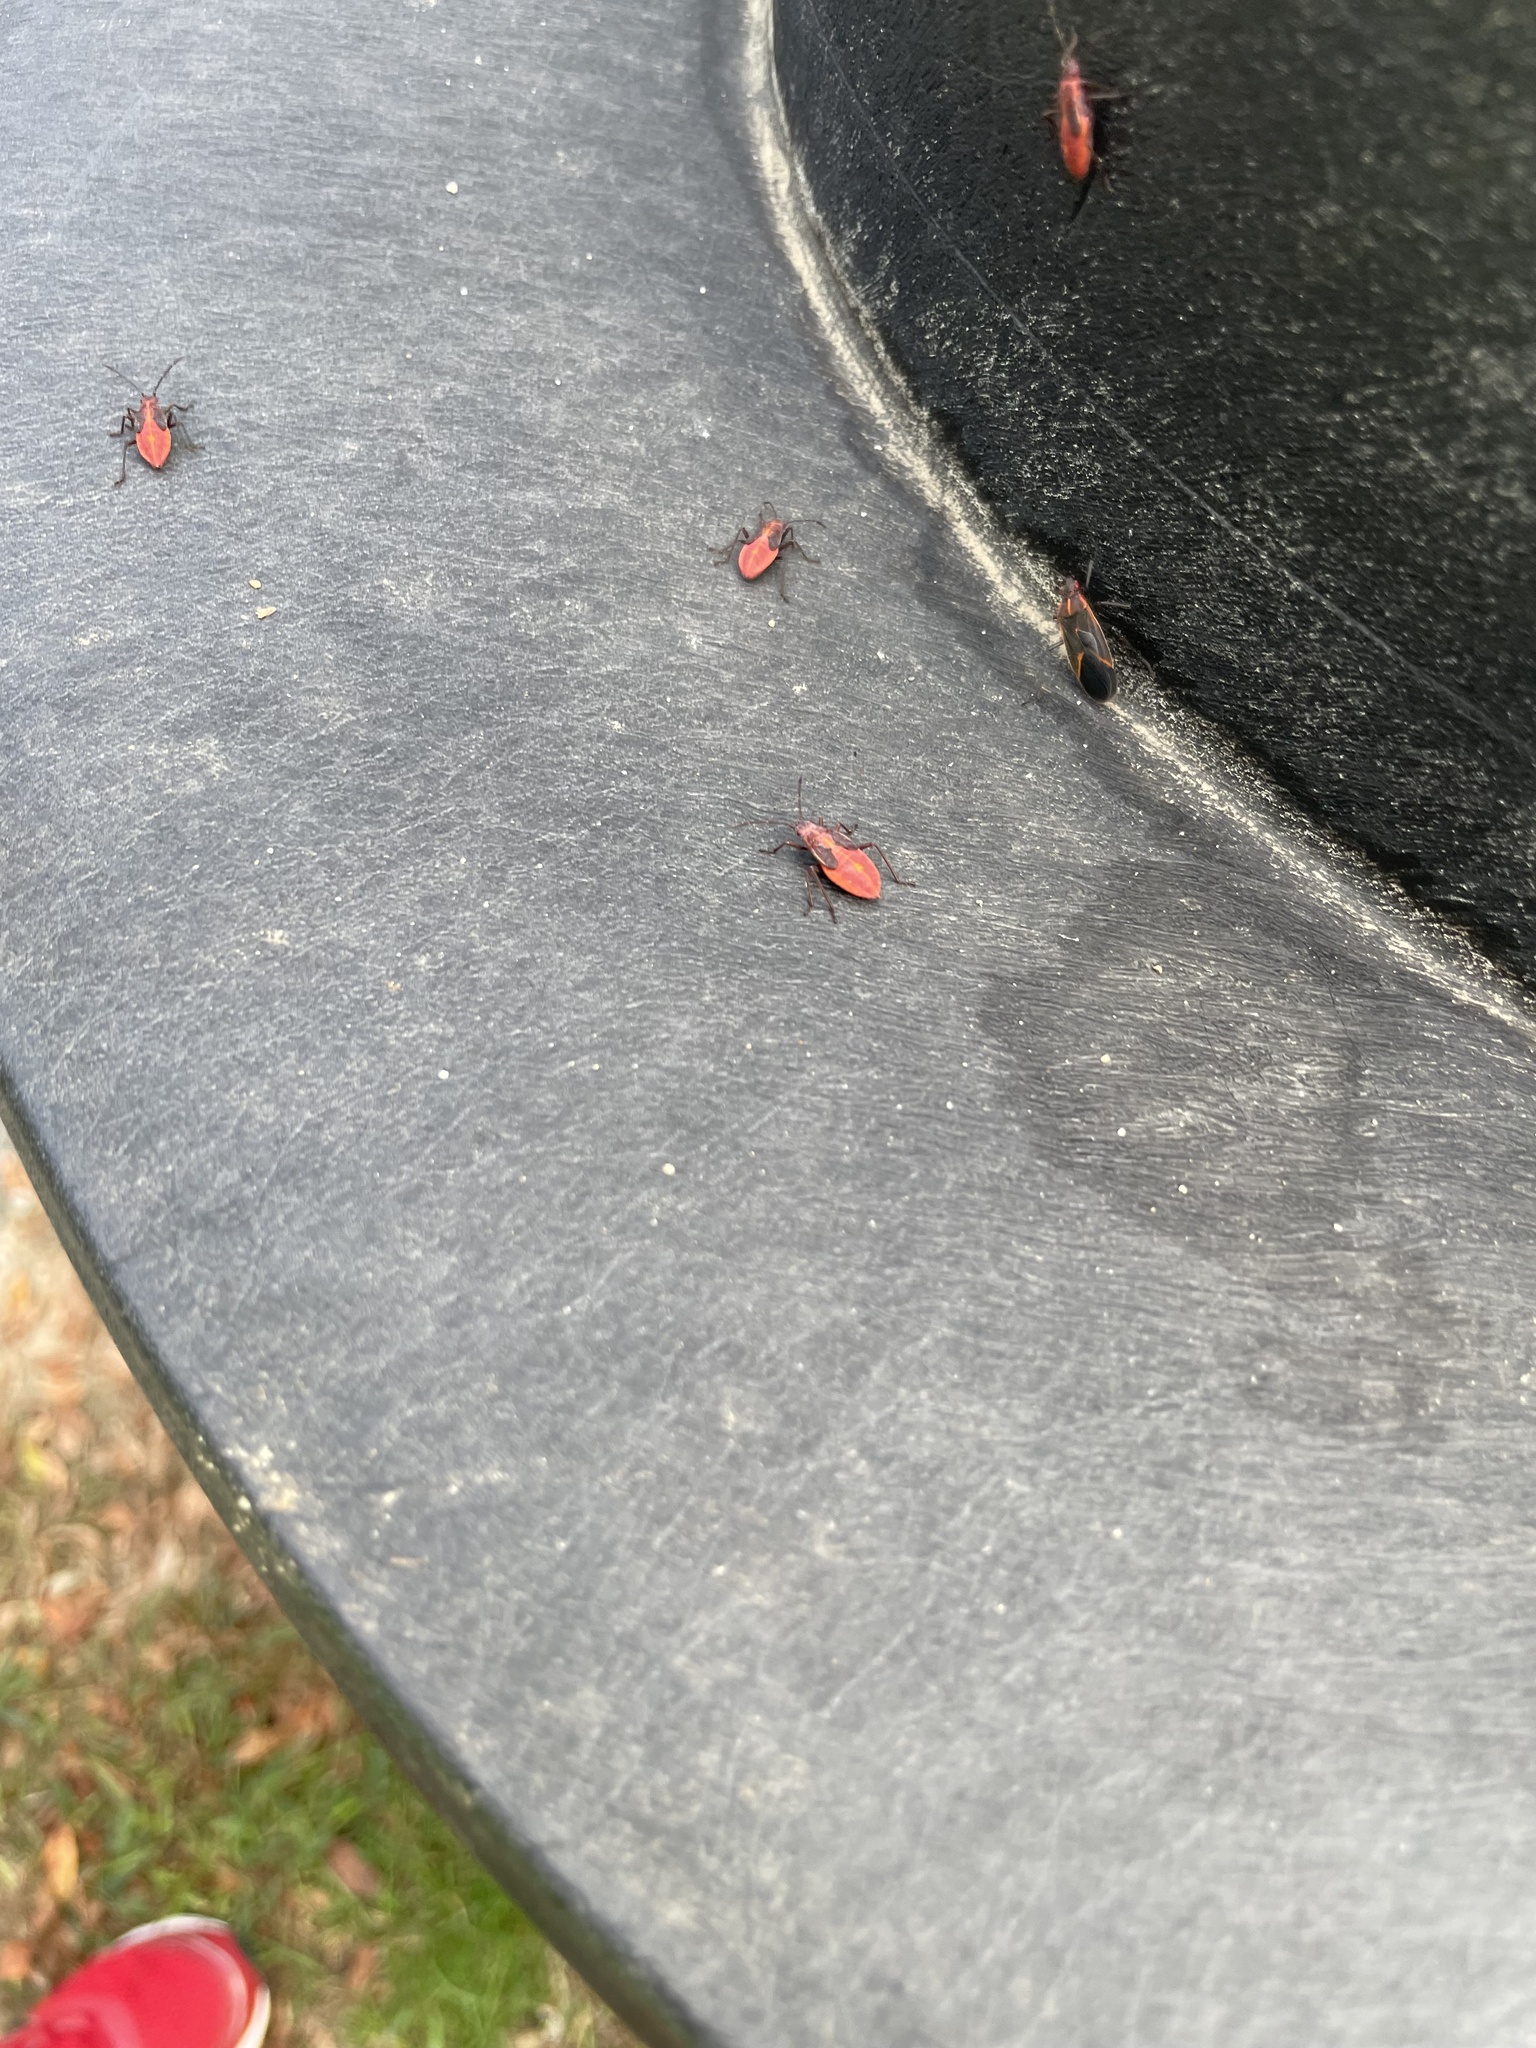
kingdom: Animalia
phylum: Arthropoda
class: Insecta
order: Hemiptera
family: Rhopalidae
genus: Boisea
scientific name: Boisea trivittata
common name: Boxelder bug
